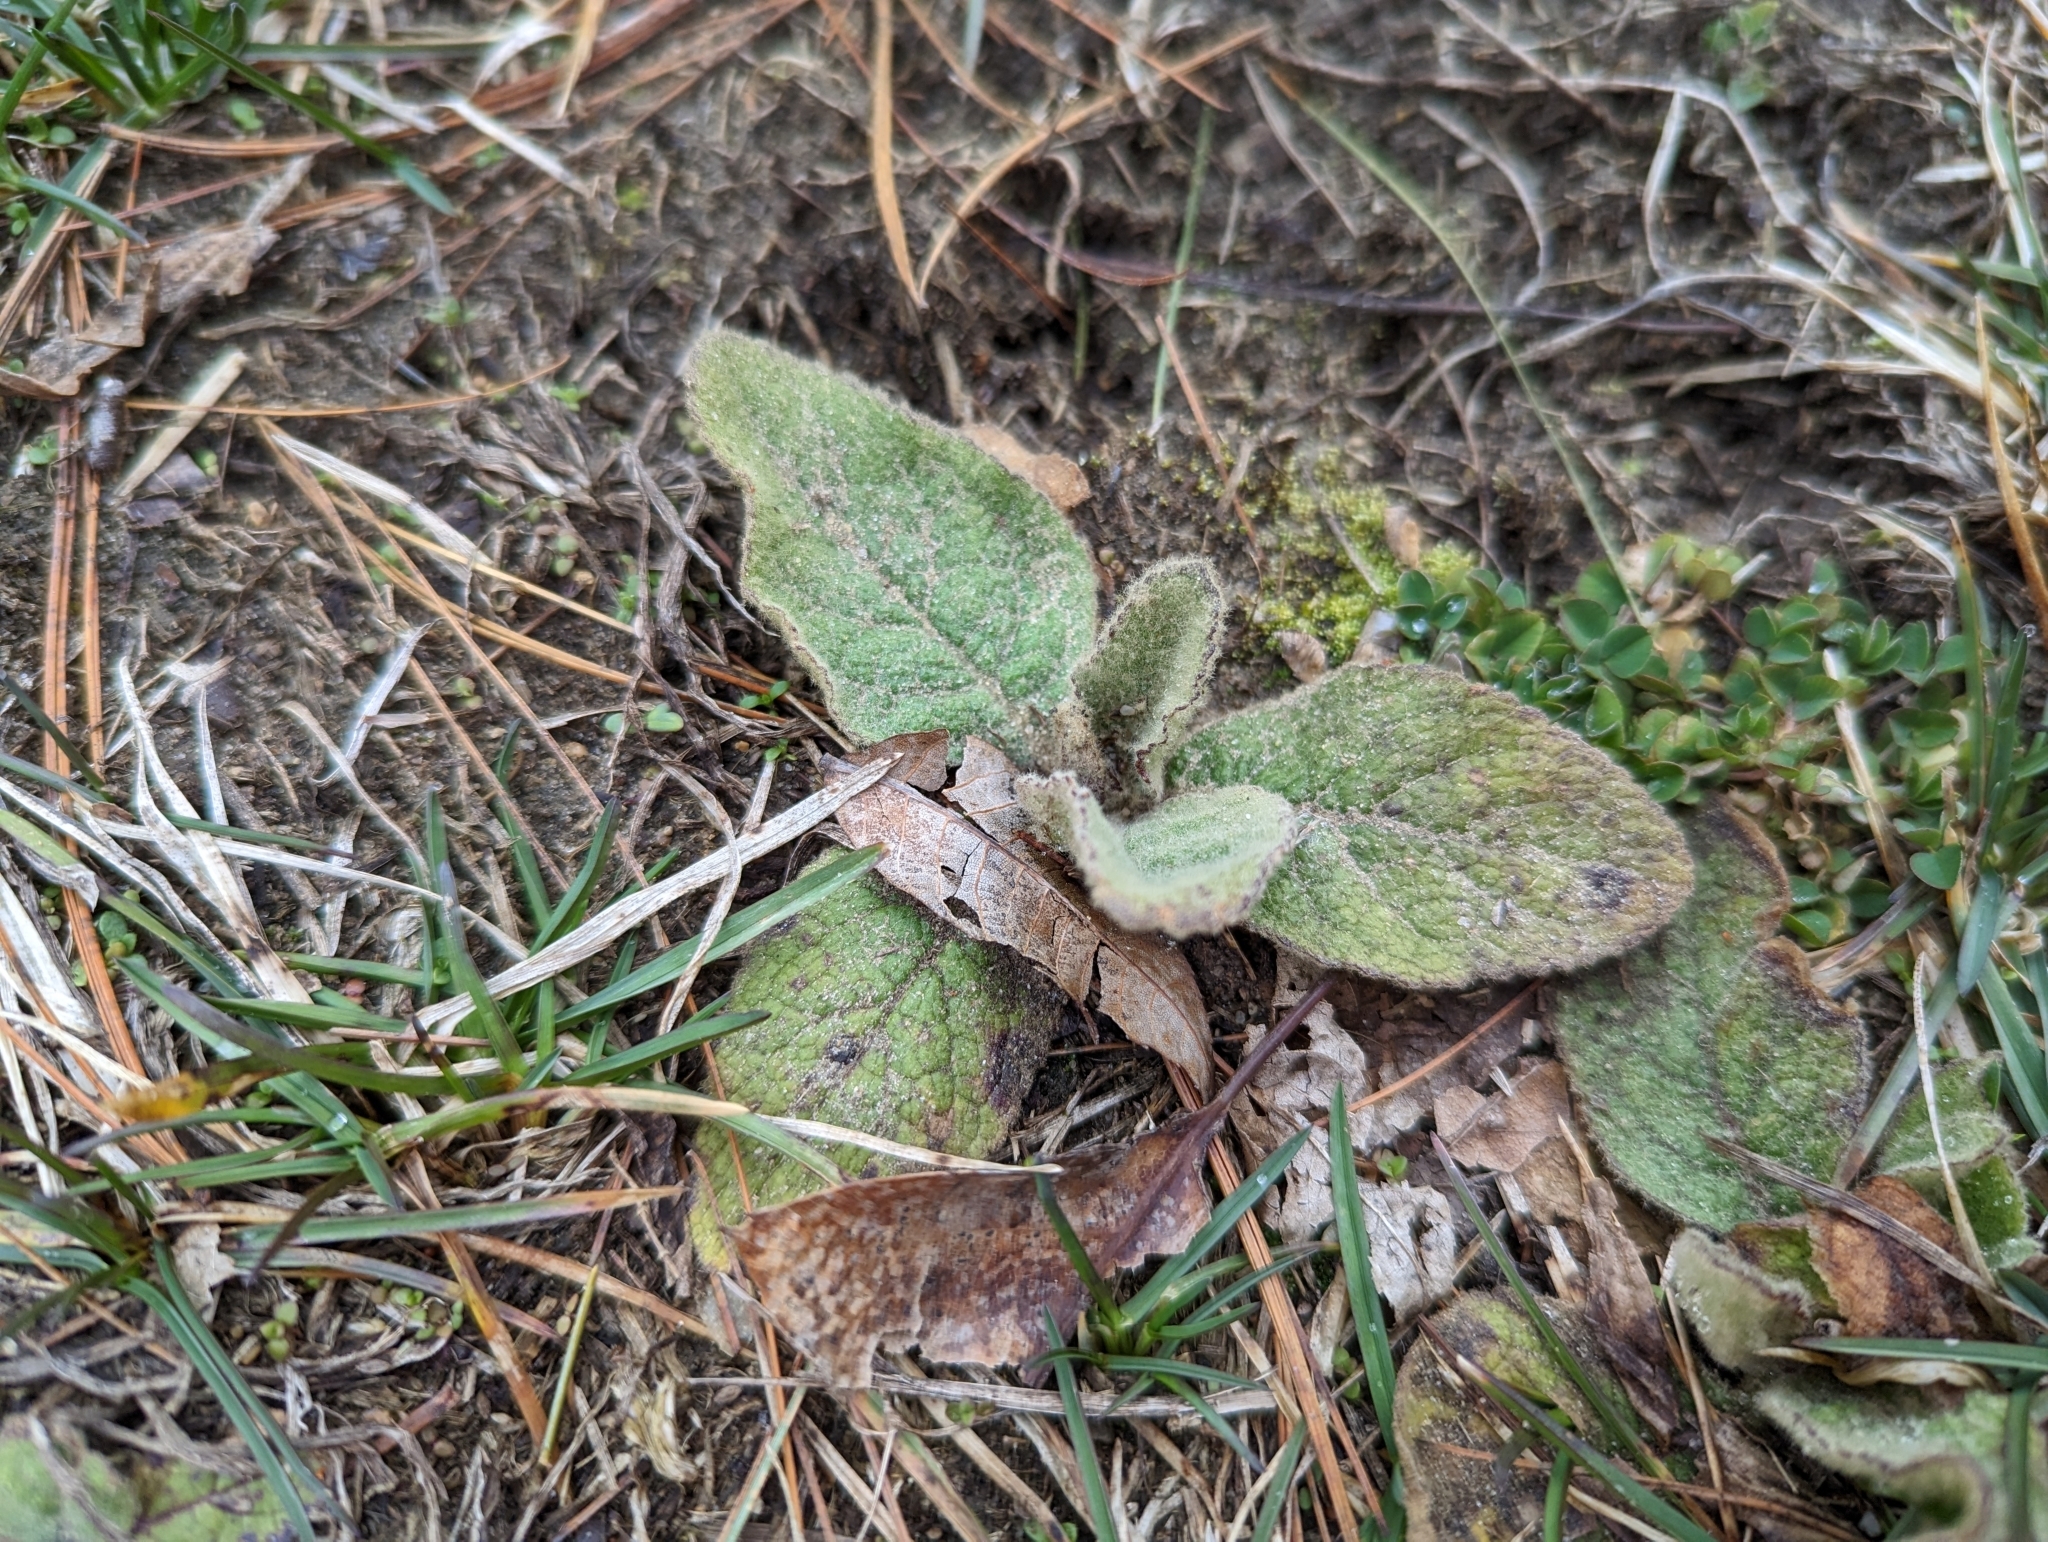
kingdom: Plantae
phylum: Tracheophyta
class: Magnoliopsida
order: Lamiales
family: Scrophulariaceae
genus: Verbascum
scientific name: Verbascum thapsus
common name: Common mullein
